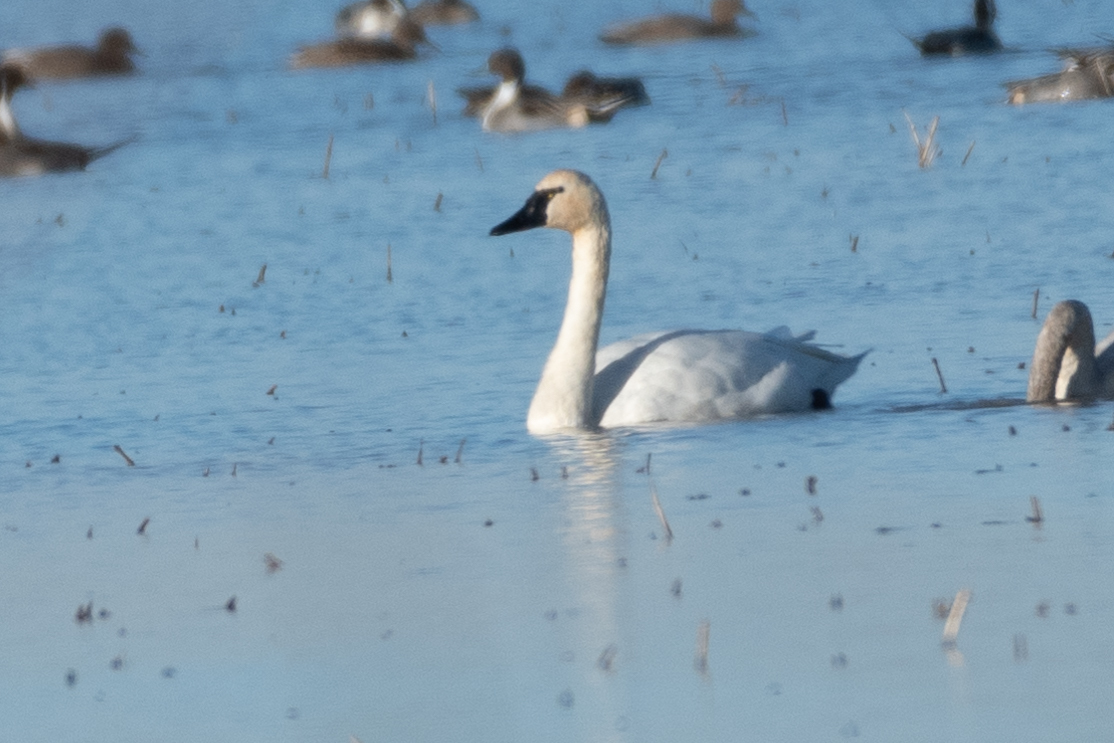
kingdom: Animalia
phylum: Chordata
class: Aves
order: Anseriformes
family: Anatidae
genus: Cygnus
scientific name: Cygnus columbianus
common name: Tundra swan
